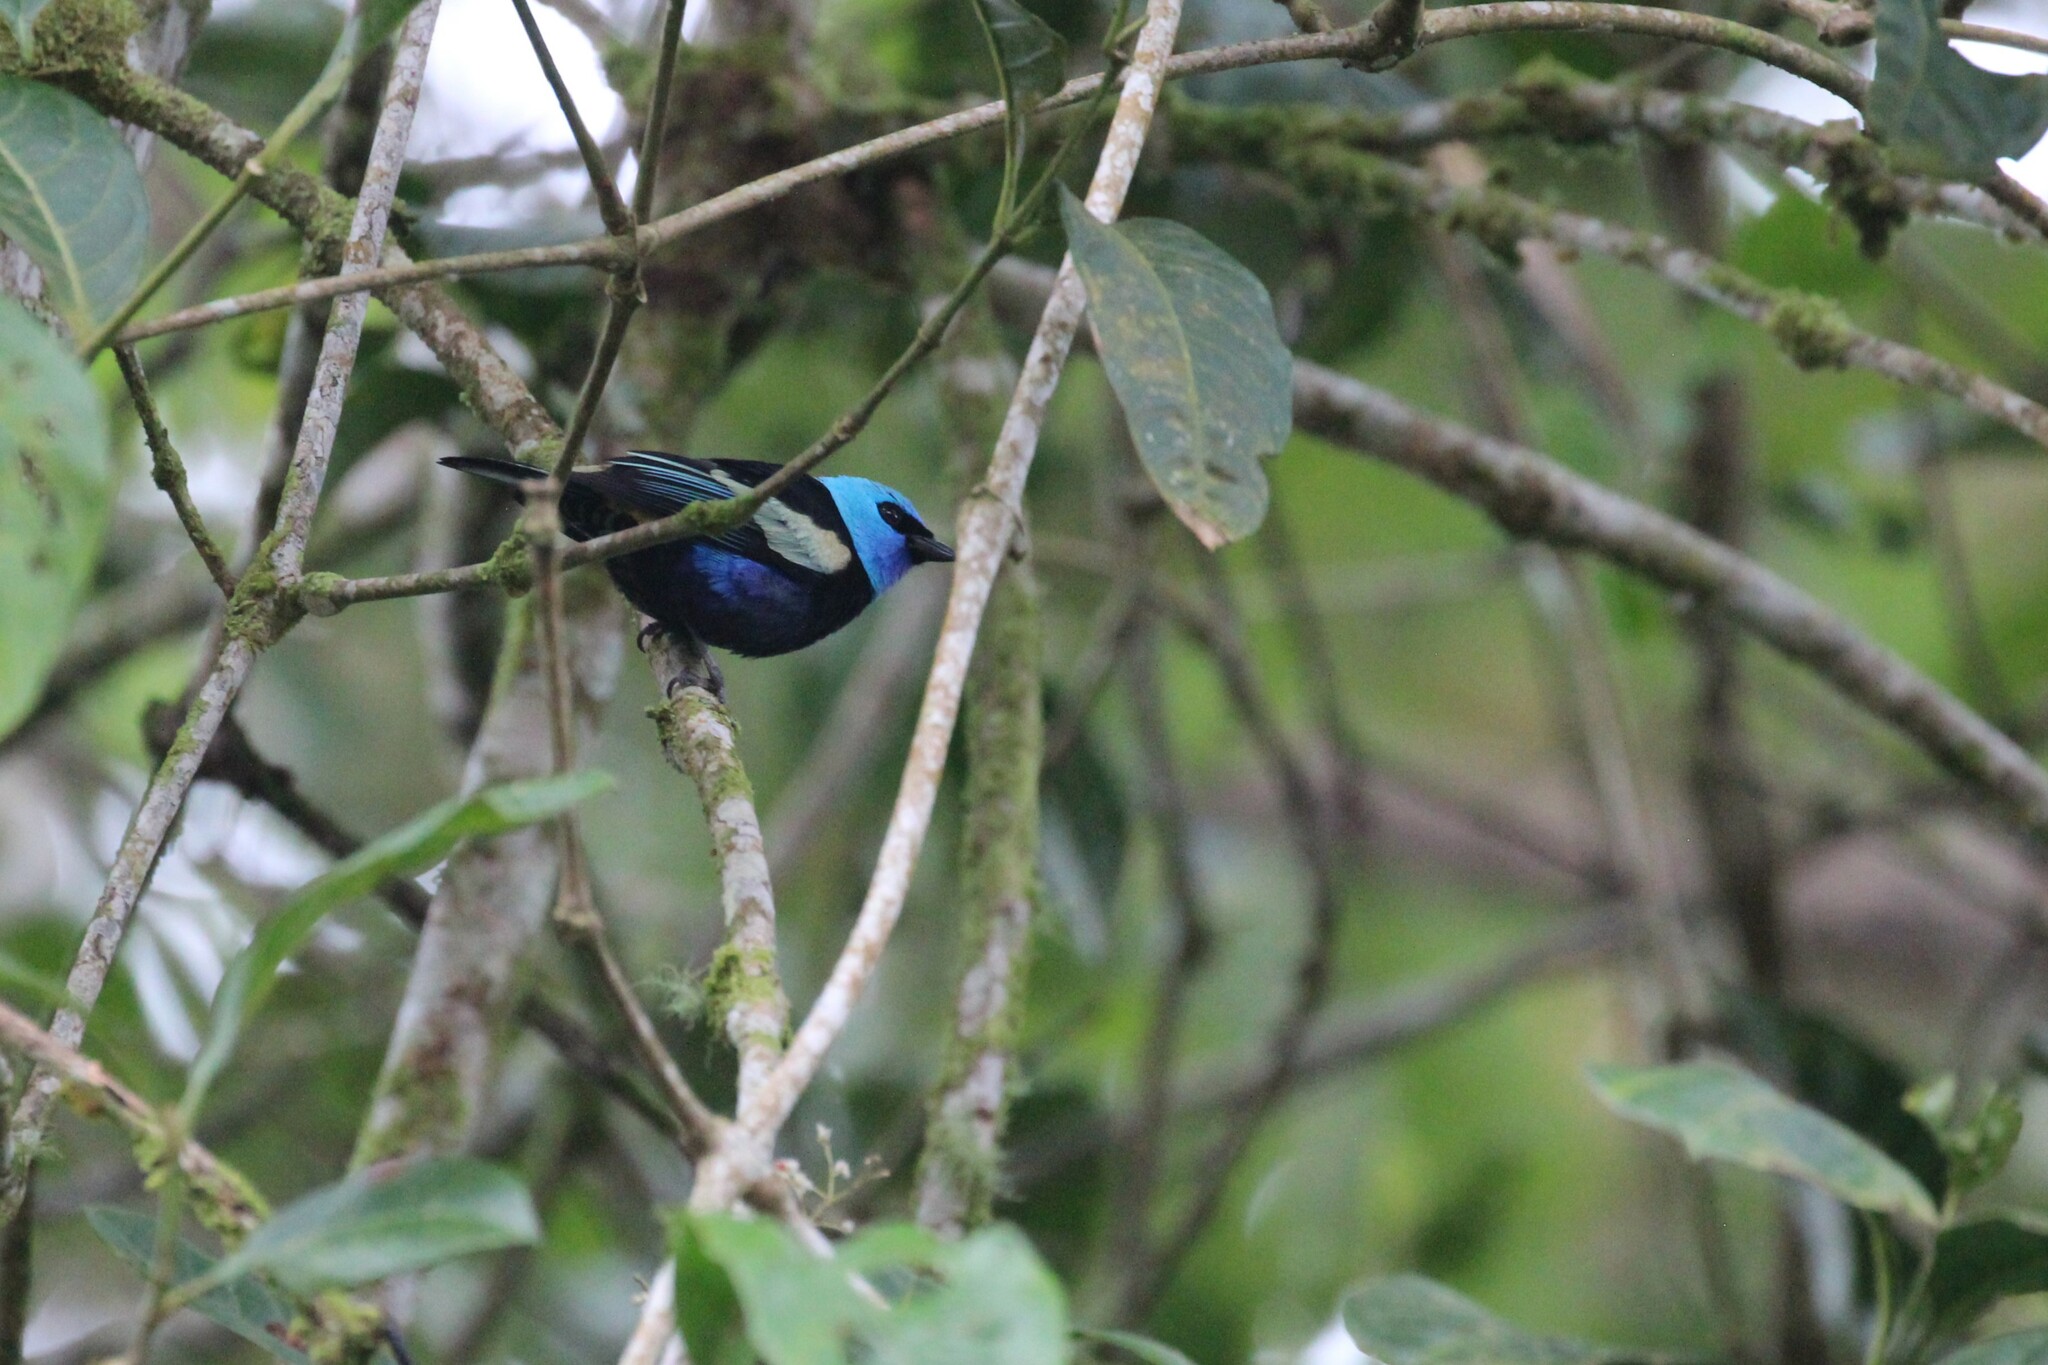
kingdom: Animalia
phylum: Chordata
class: Aves
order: Passeriformes
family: Thraupidae
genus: Stilpnia
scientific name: Stilpnia cyanicollis
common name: Blue-necked tanager
